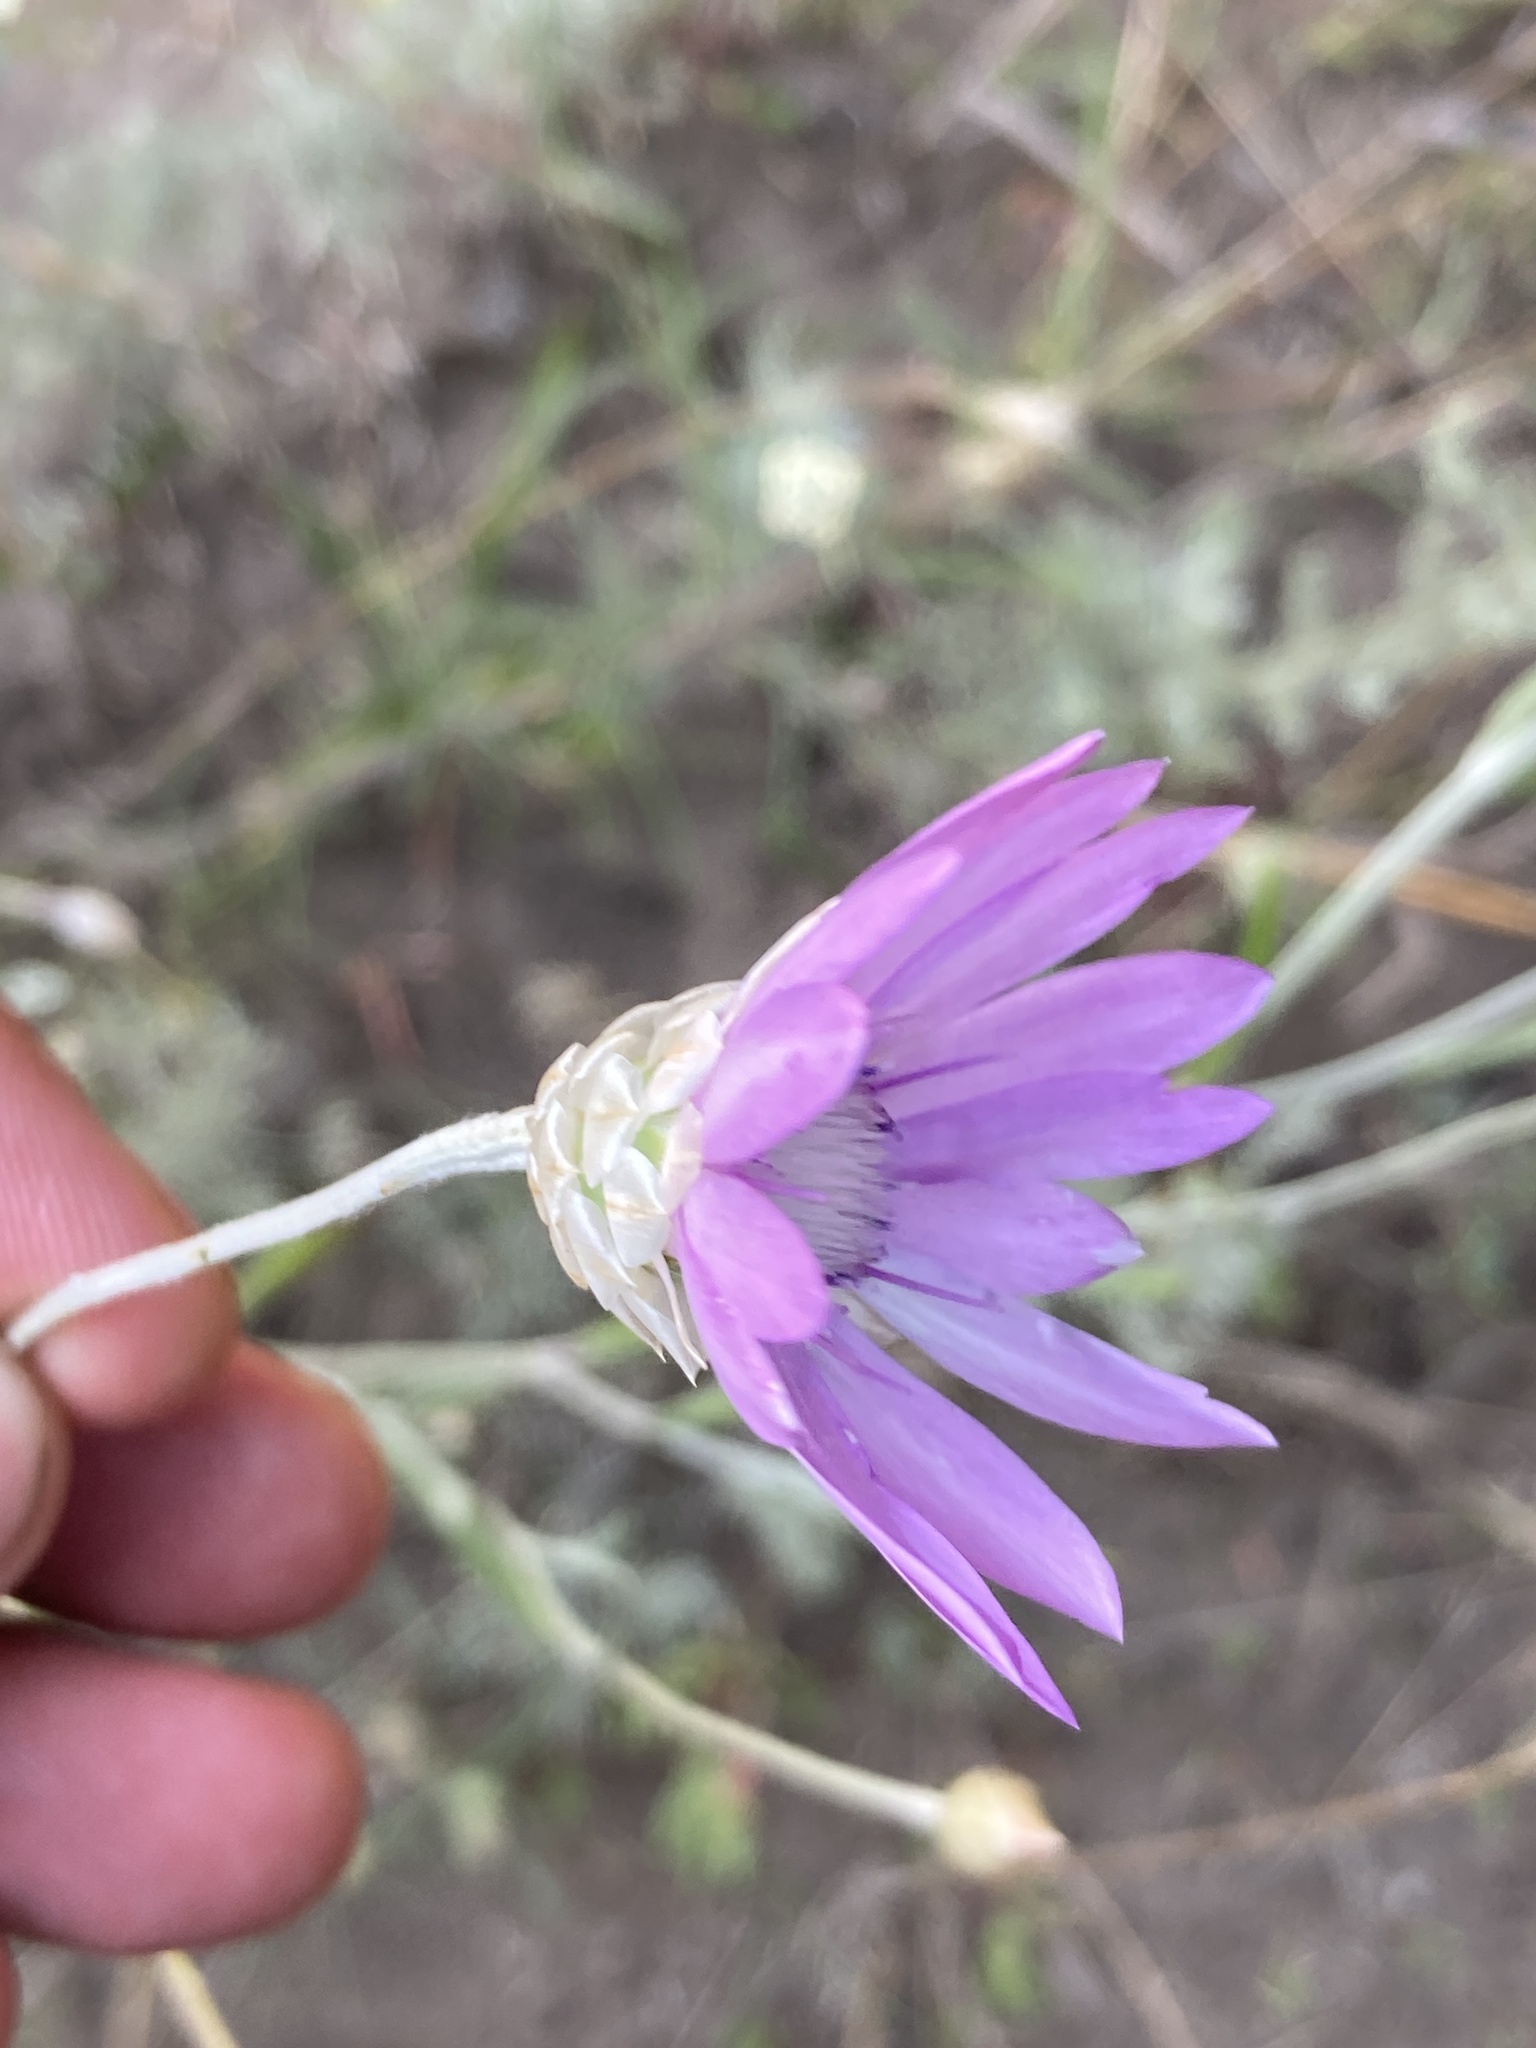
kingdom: Plantae
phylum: Tracheophyta
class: Magnoliopsida
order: Asterales
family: Asteraceae
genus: Xeranthemum
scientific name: Xeranthemum annuum
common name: Immortelle
